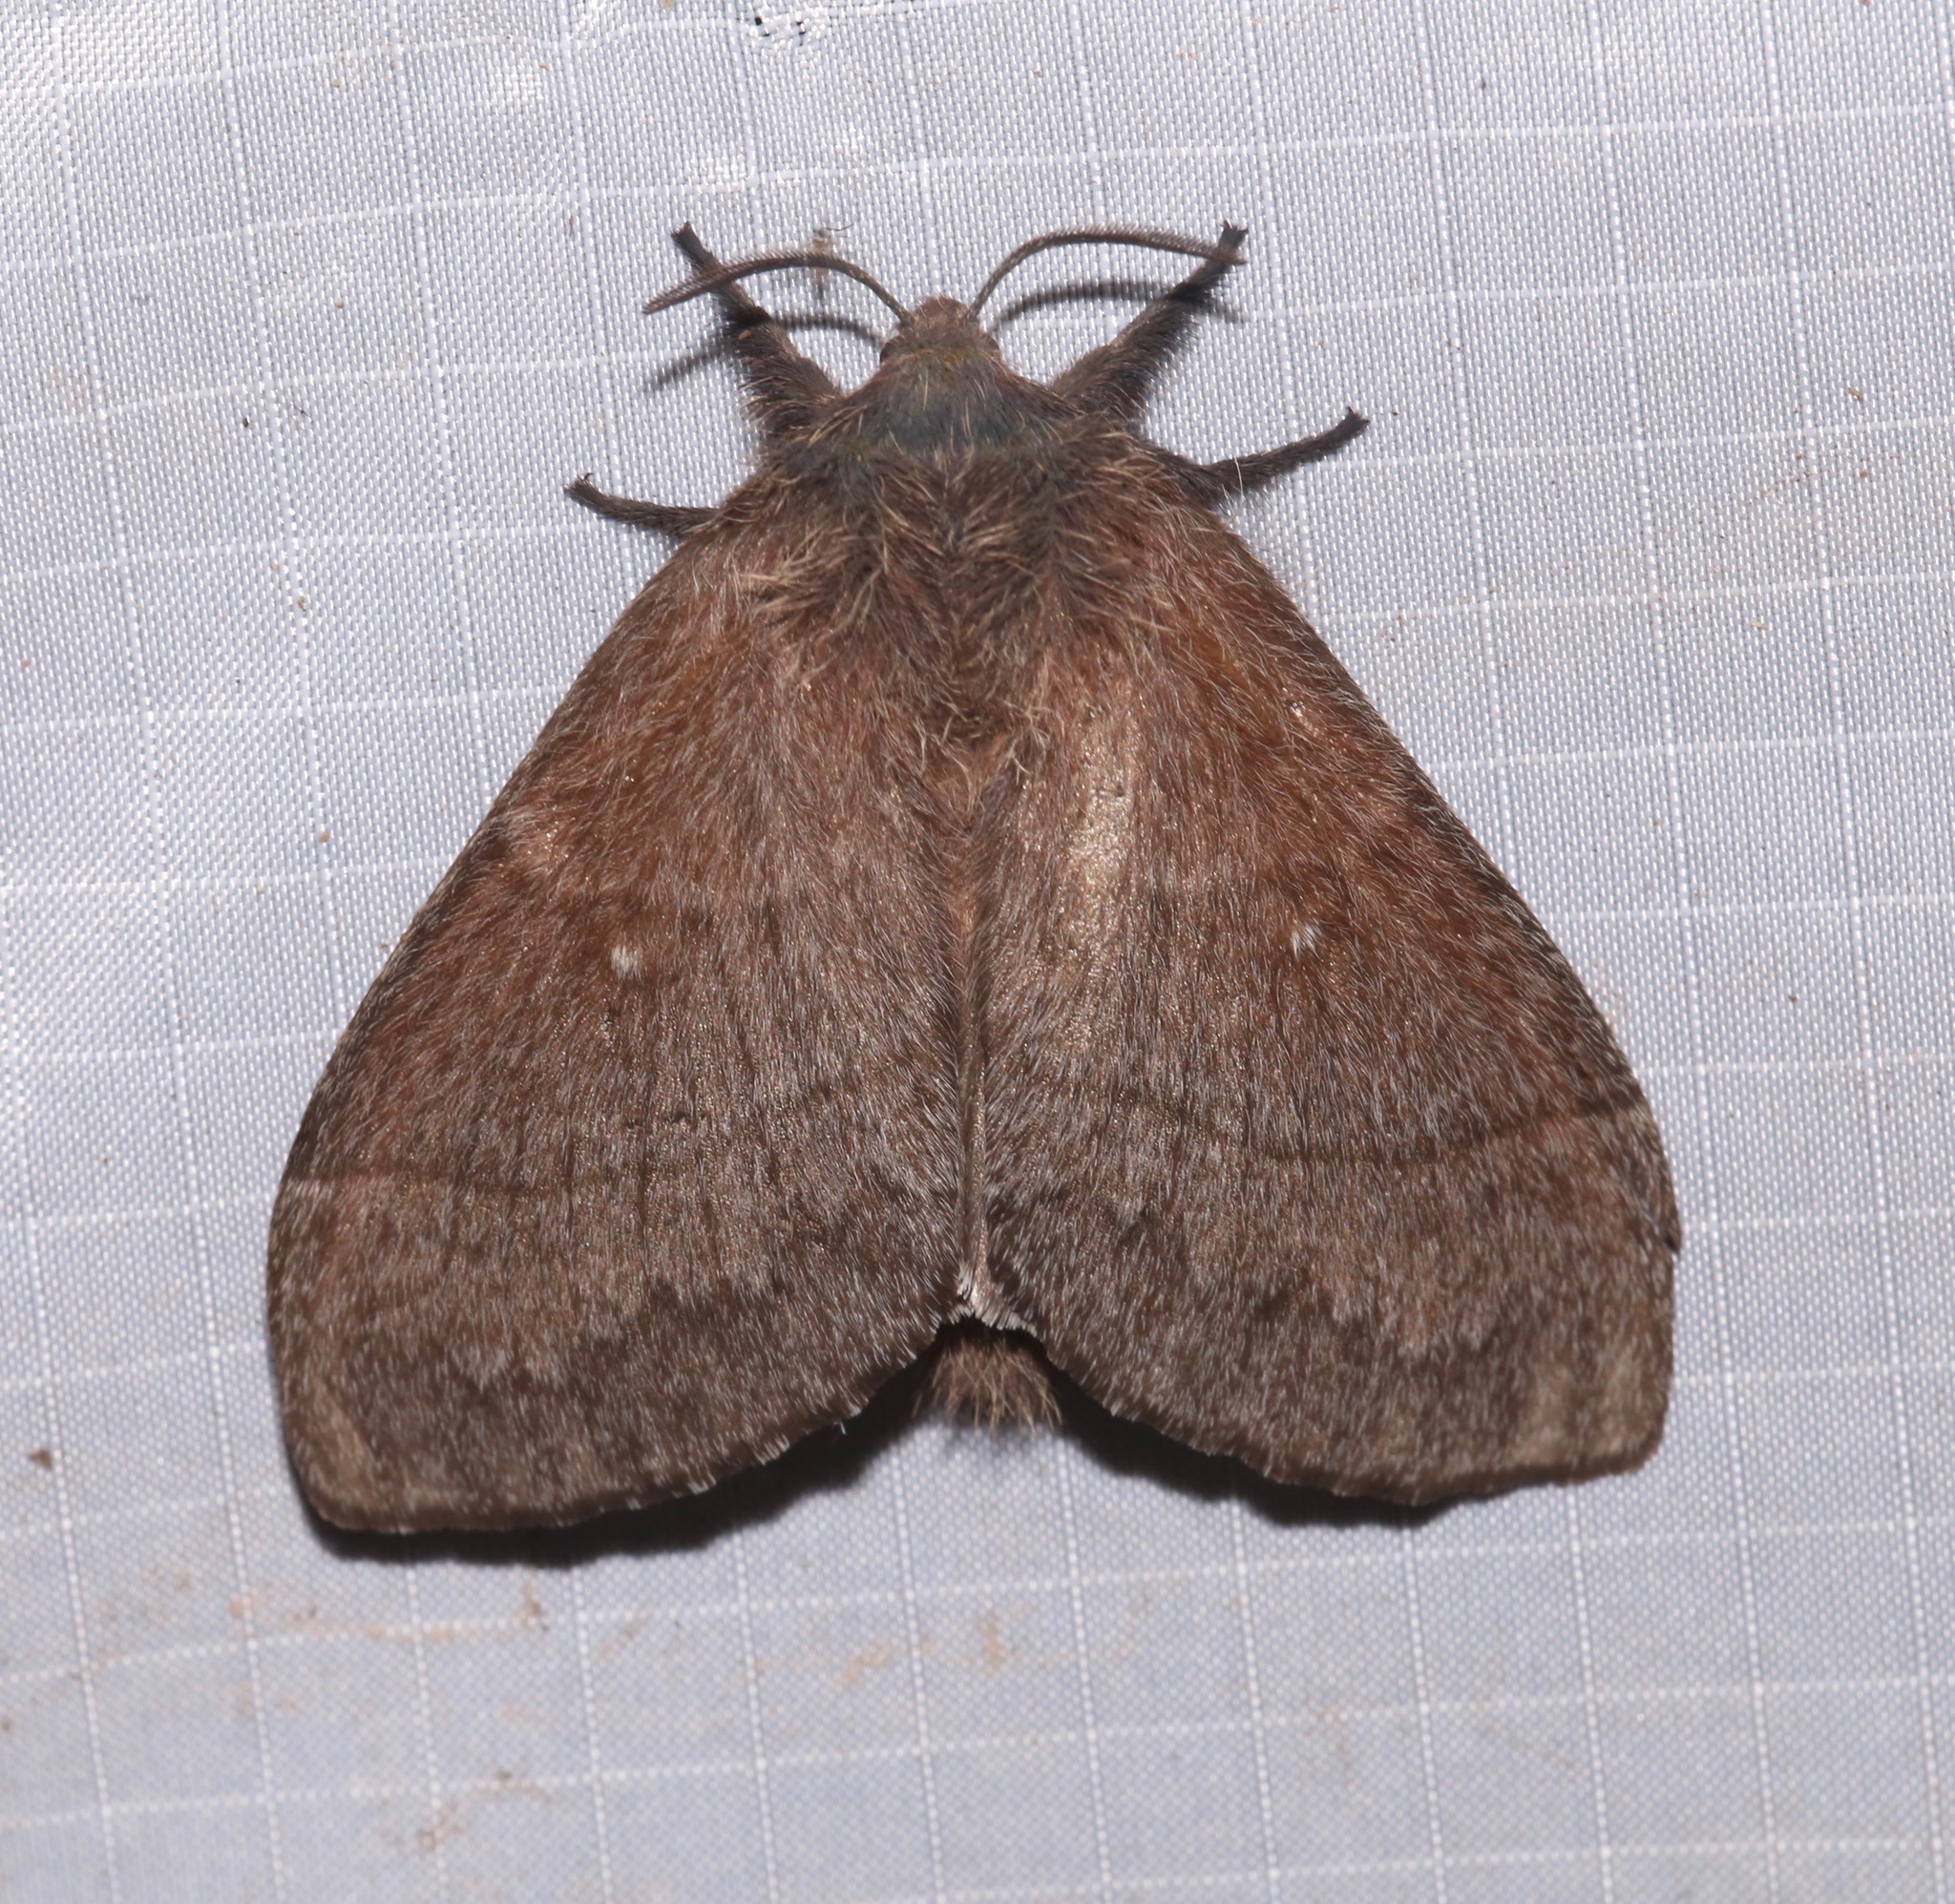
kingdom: Animalia
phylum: Arthropoda
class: Insecta
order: Lepidoptera
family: Lasiocampidae
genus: Gloveria
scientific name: Gloveria gargamelle
